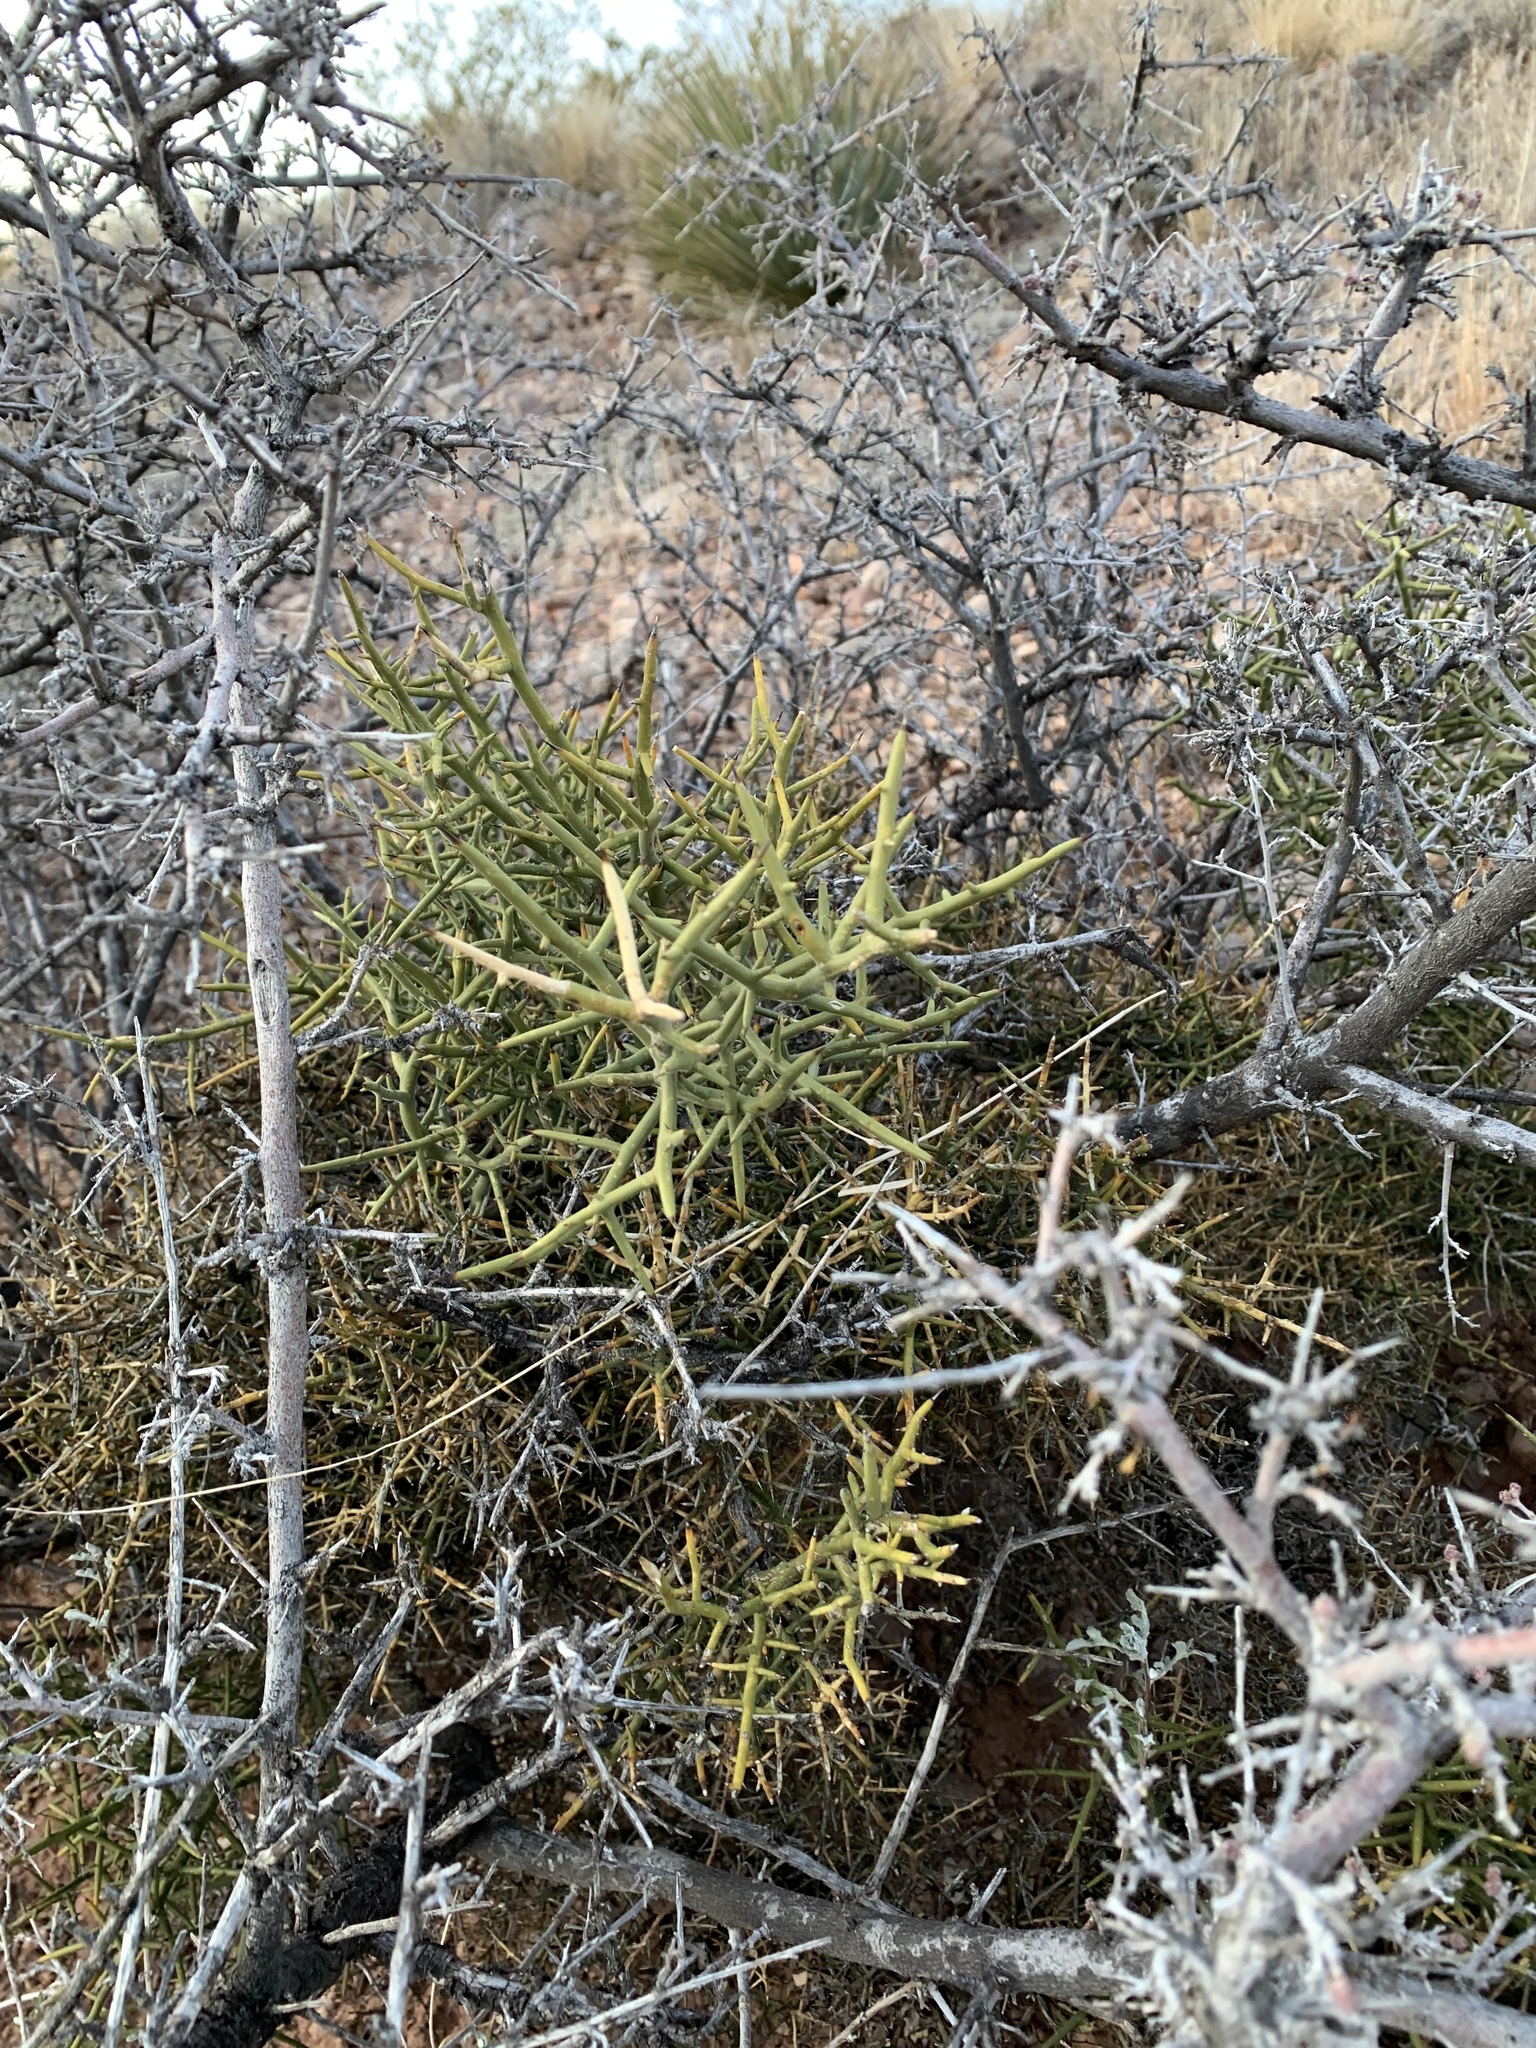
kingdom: Plantae
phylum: Tracheophyta
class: Magnoliopsida
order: Brassicales
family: Koeberliniaceae
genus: Koeberlinia
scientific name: Koeberlinia spinosa
